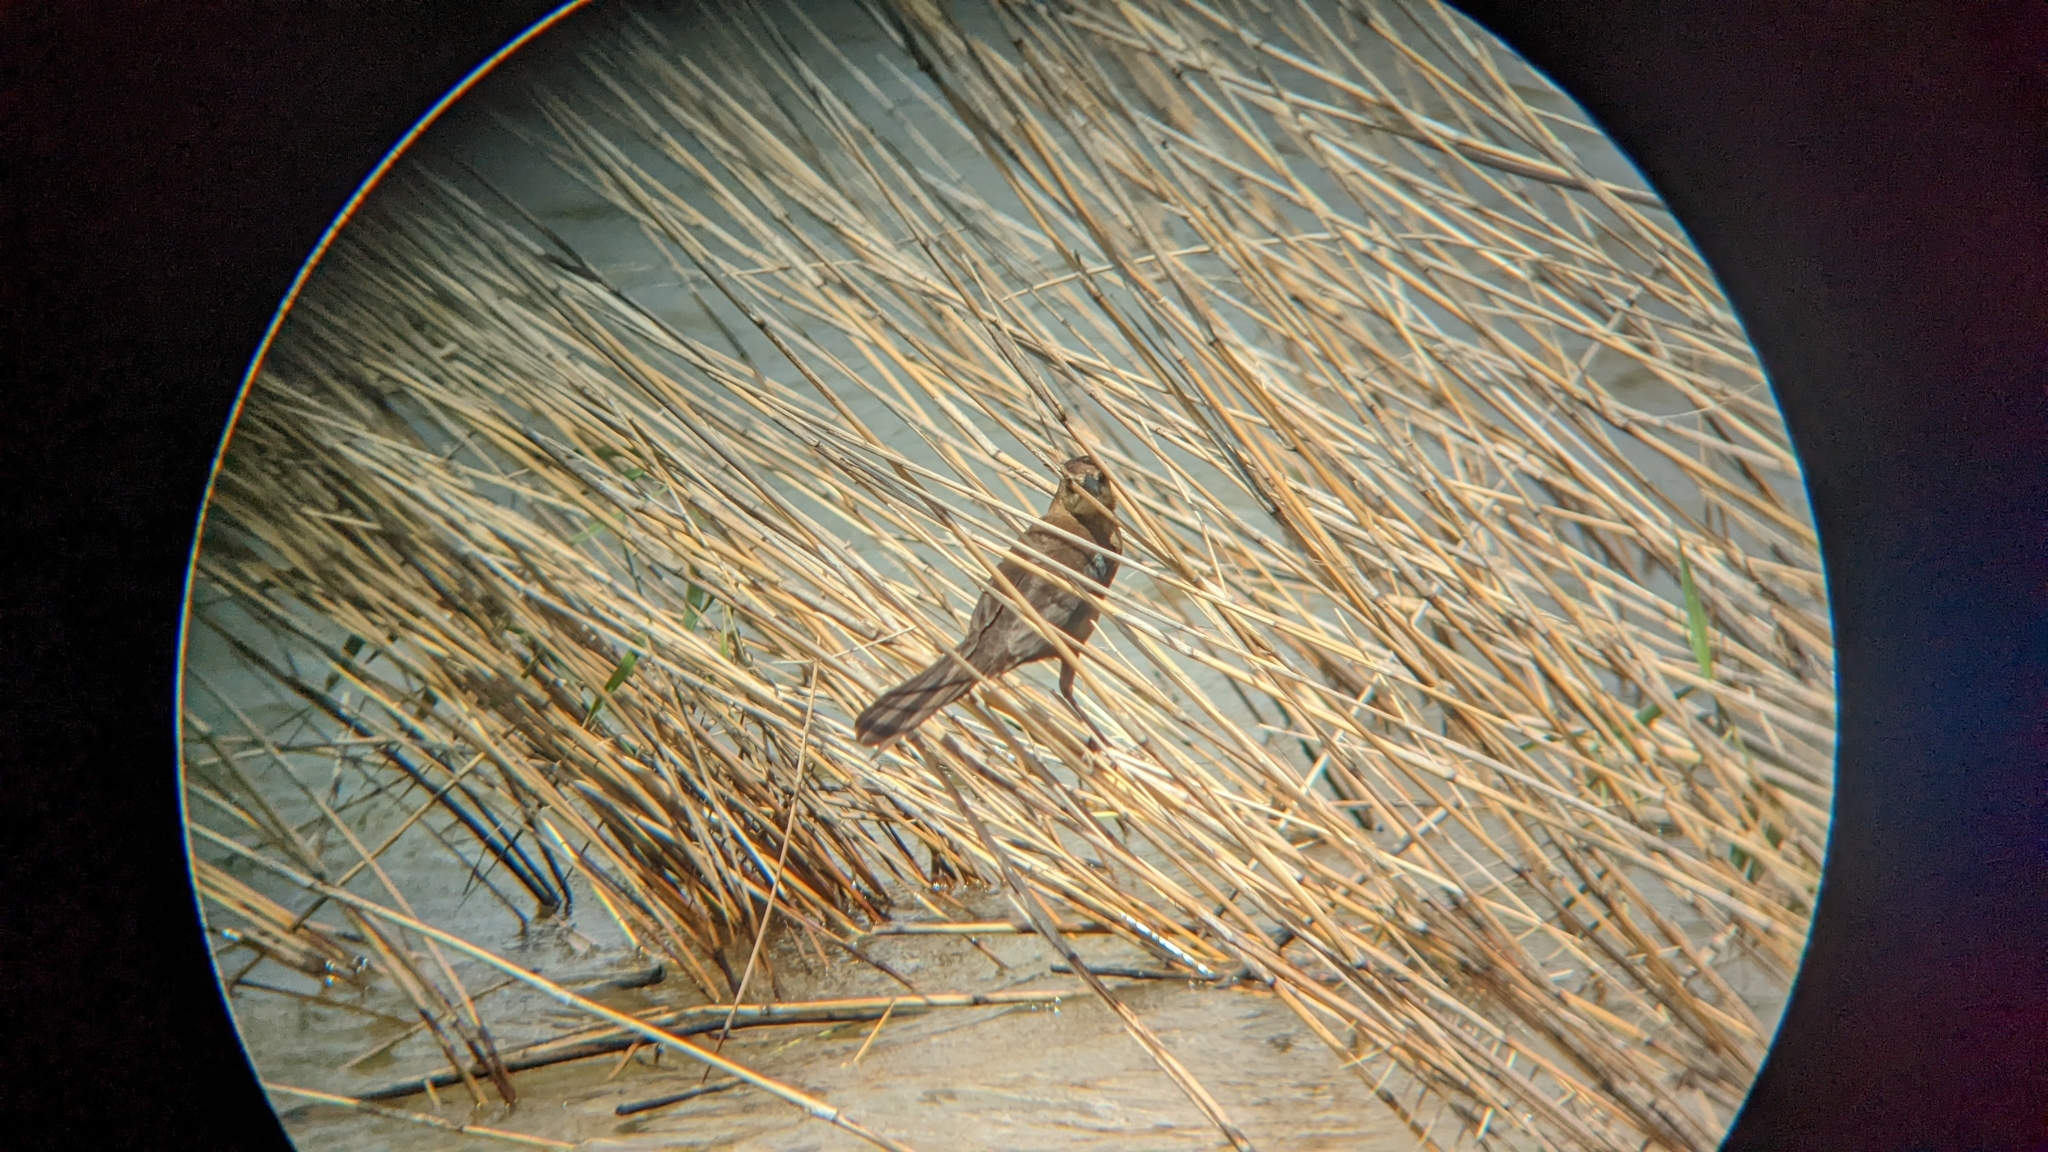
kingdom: Animalia
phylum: Chordata
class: Aves
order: Passeriformes
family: Icteridae
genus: Quiscalus
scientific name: Quiscalus major
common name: Boat-tailed grackle
